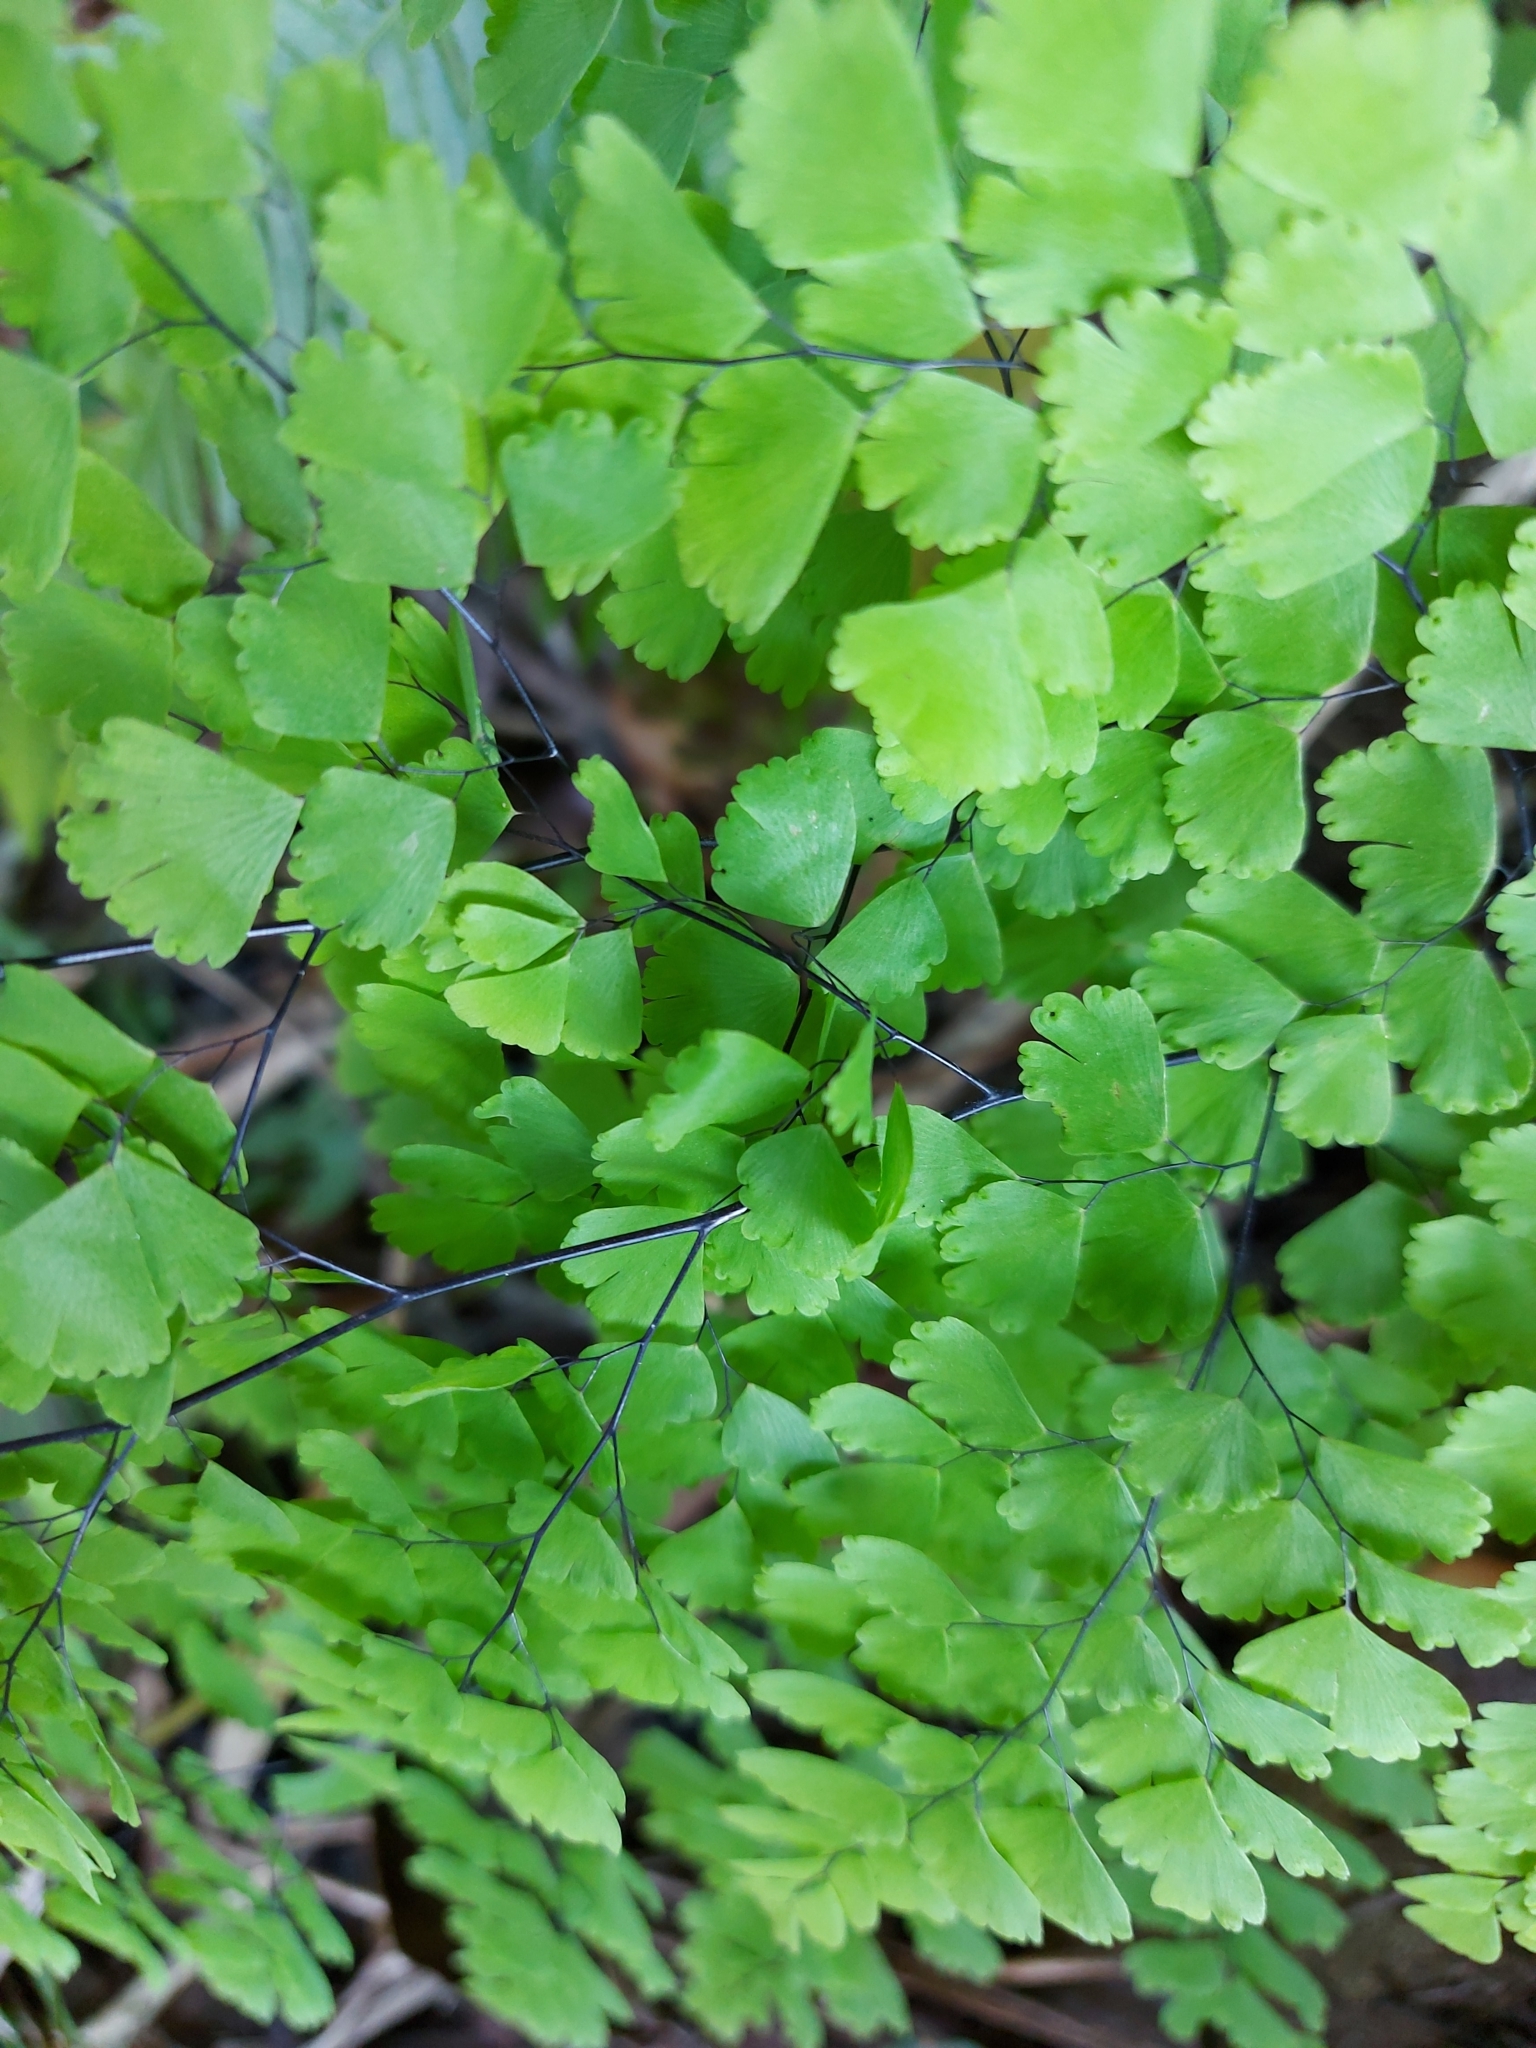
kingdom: Plantae
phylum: Tracheophyta
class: Polypodiopsida
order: Polypodiales
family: Pteridaceae
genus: Adiantum
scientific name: Adiantum capillus-veneris
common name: Maidenhair fern
